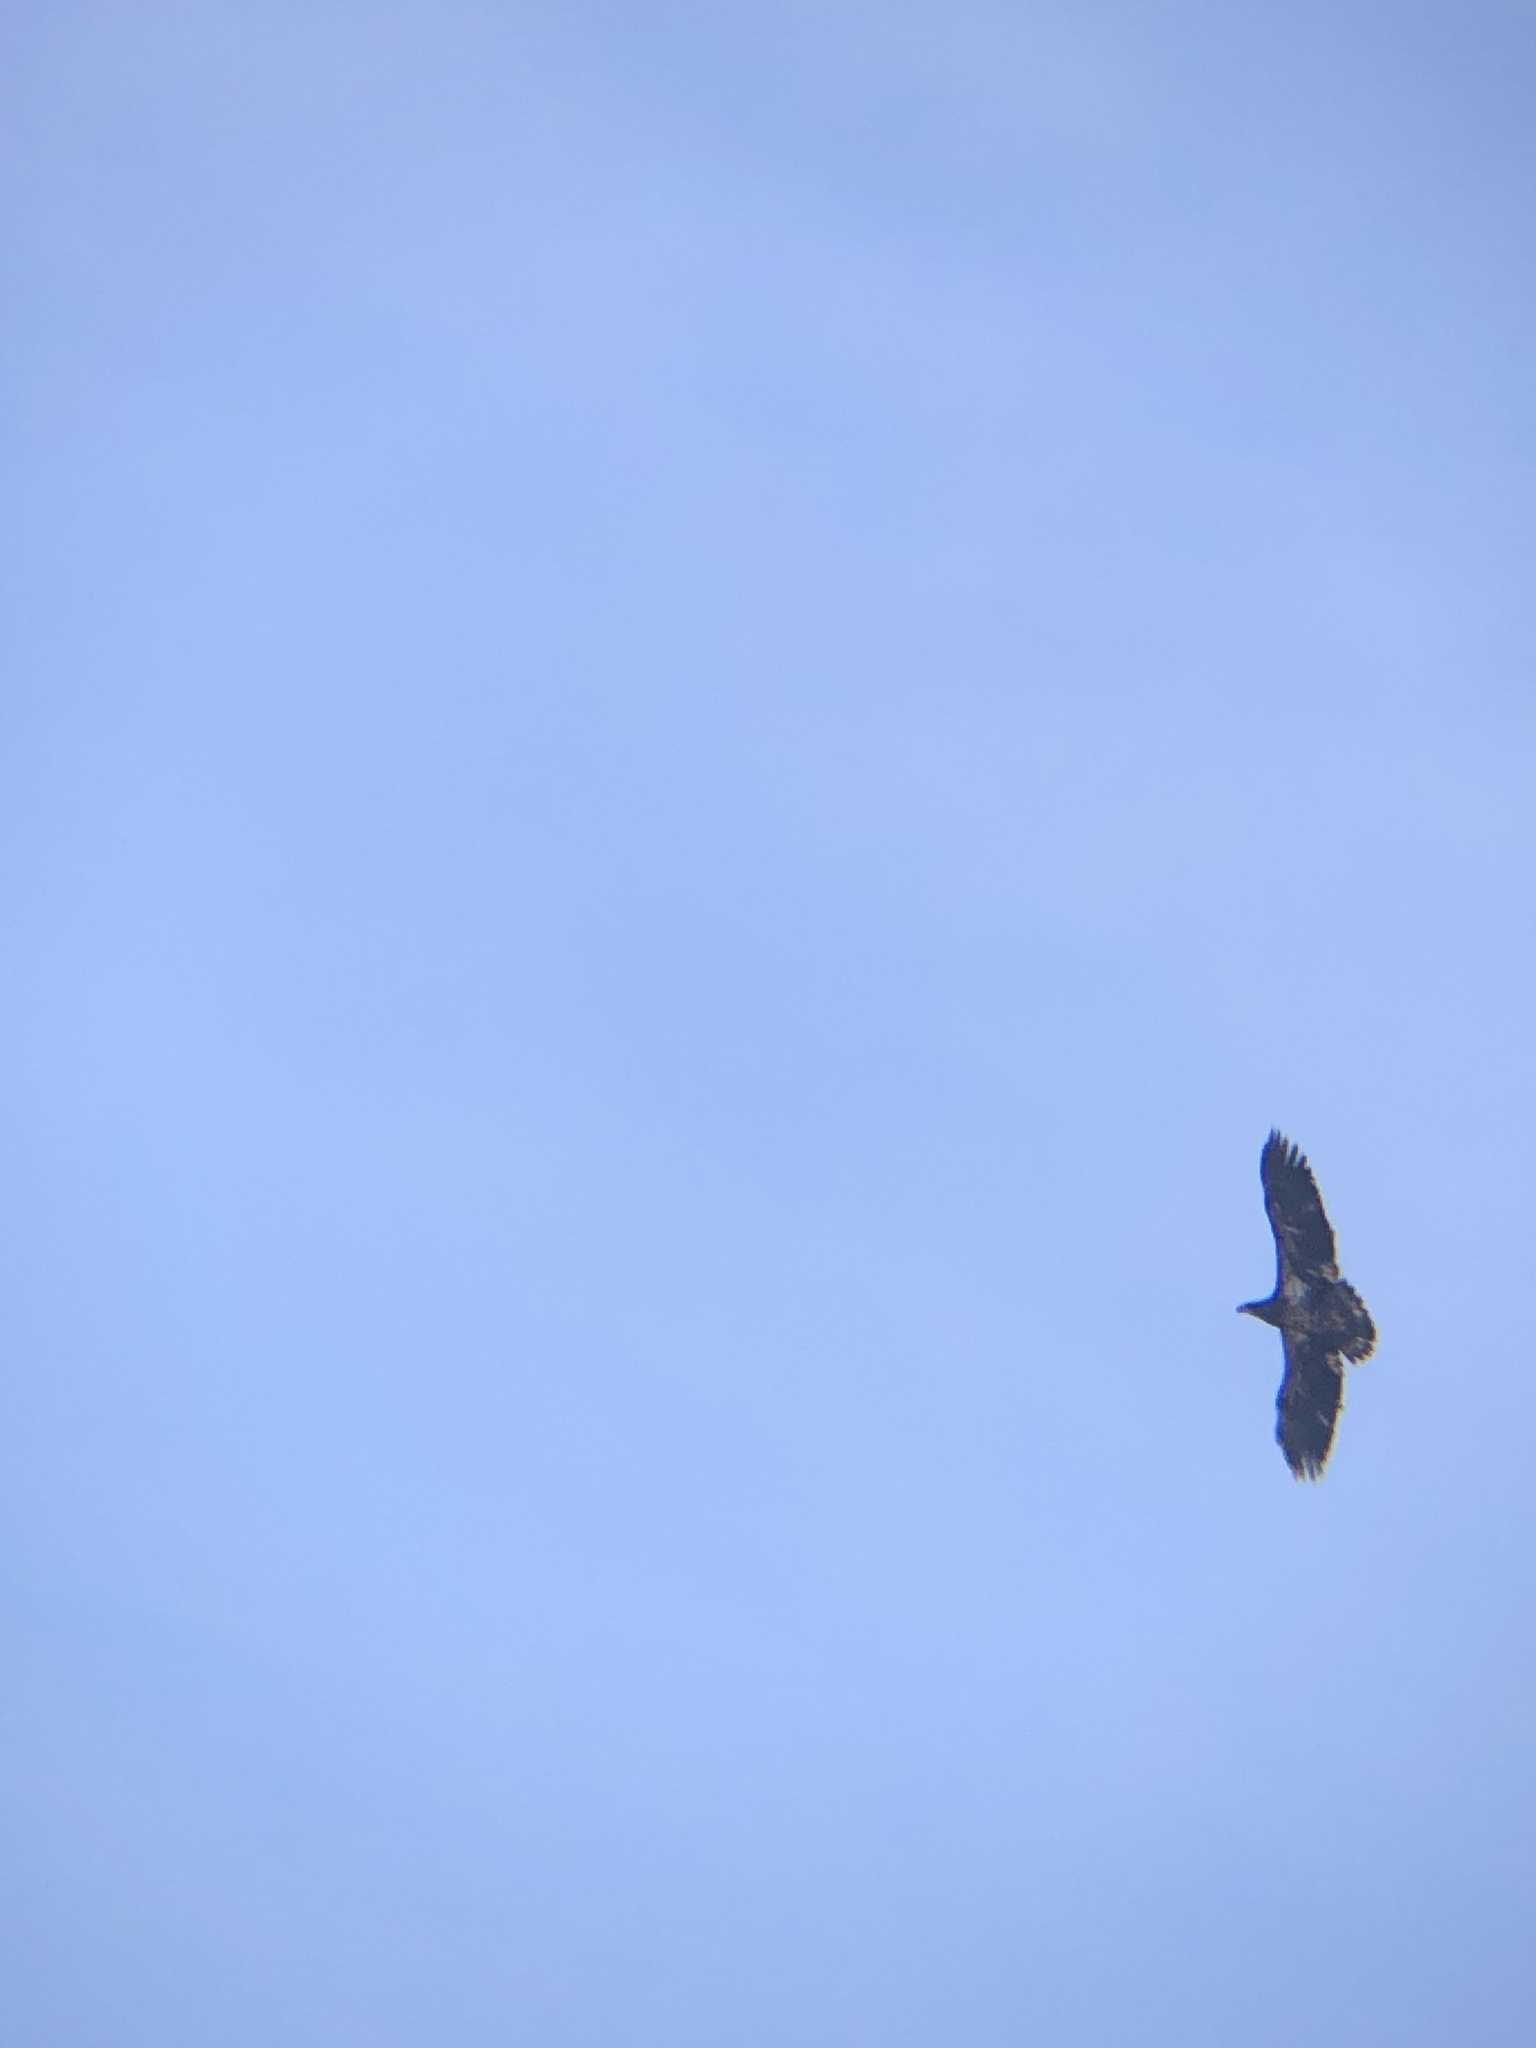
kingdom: Animalia
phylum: Chordata
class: Aves
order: Accipitriformes
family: Accipitridae
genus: Haliaeetus
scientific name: Haliaeetus leucocephalus
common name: Bald eagle
